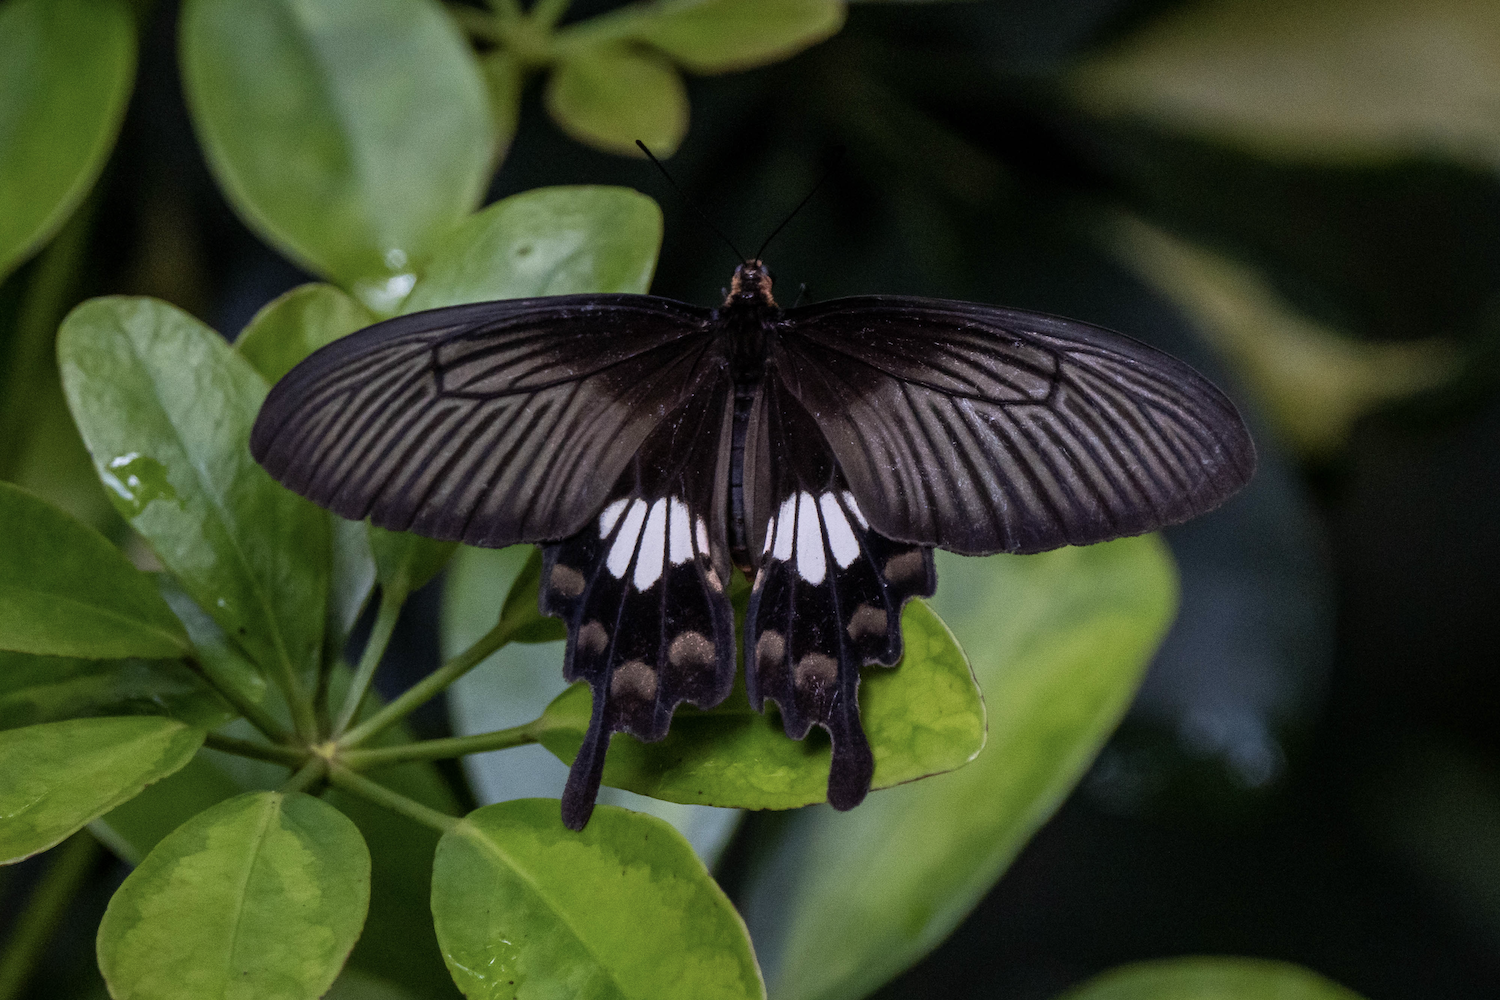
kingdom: Animalia
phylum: Arthropoda
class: Insecta
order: Lepidoptera
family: Papilionidae
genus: Pachliopta
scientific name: Pachliopta aristolochiae
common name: Common rose
